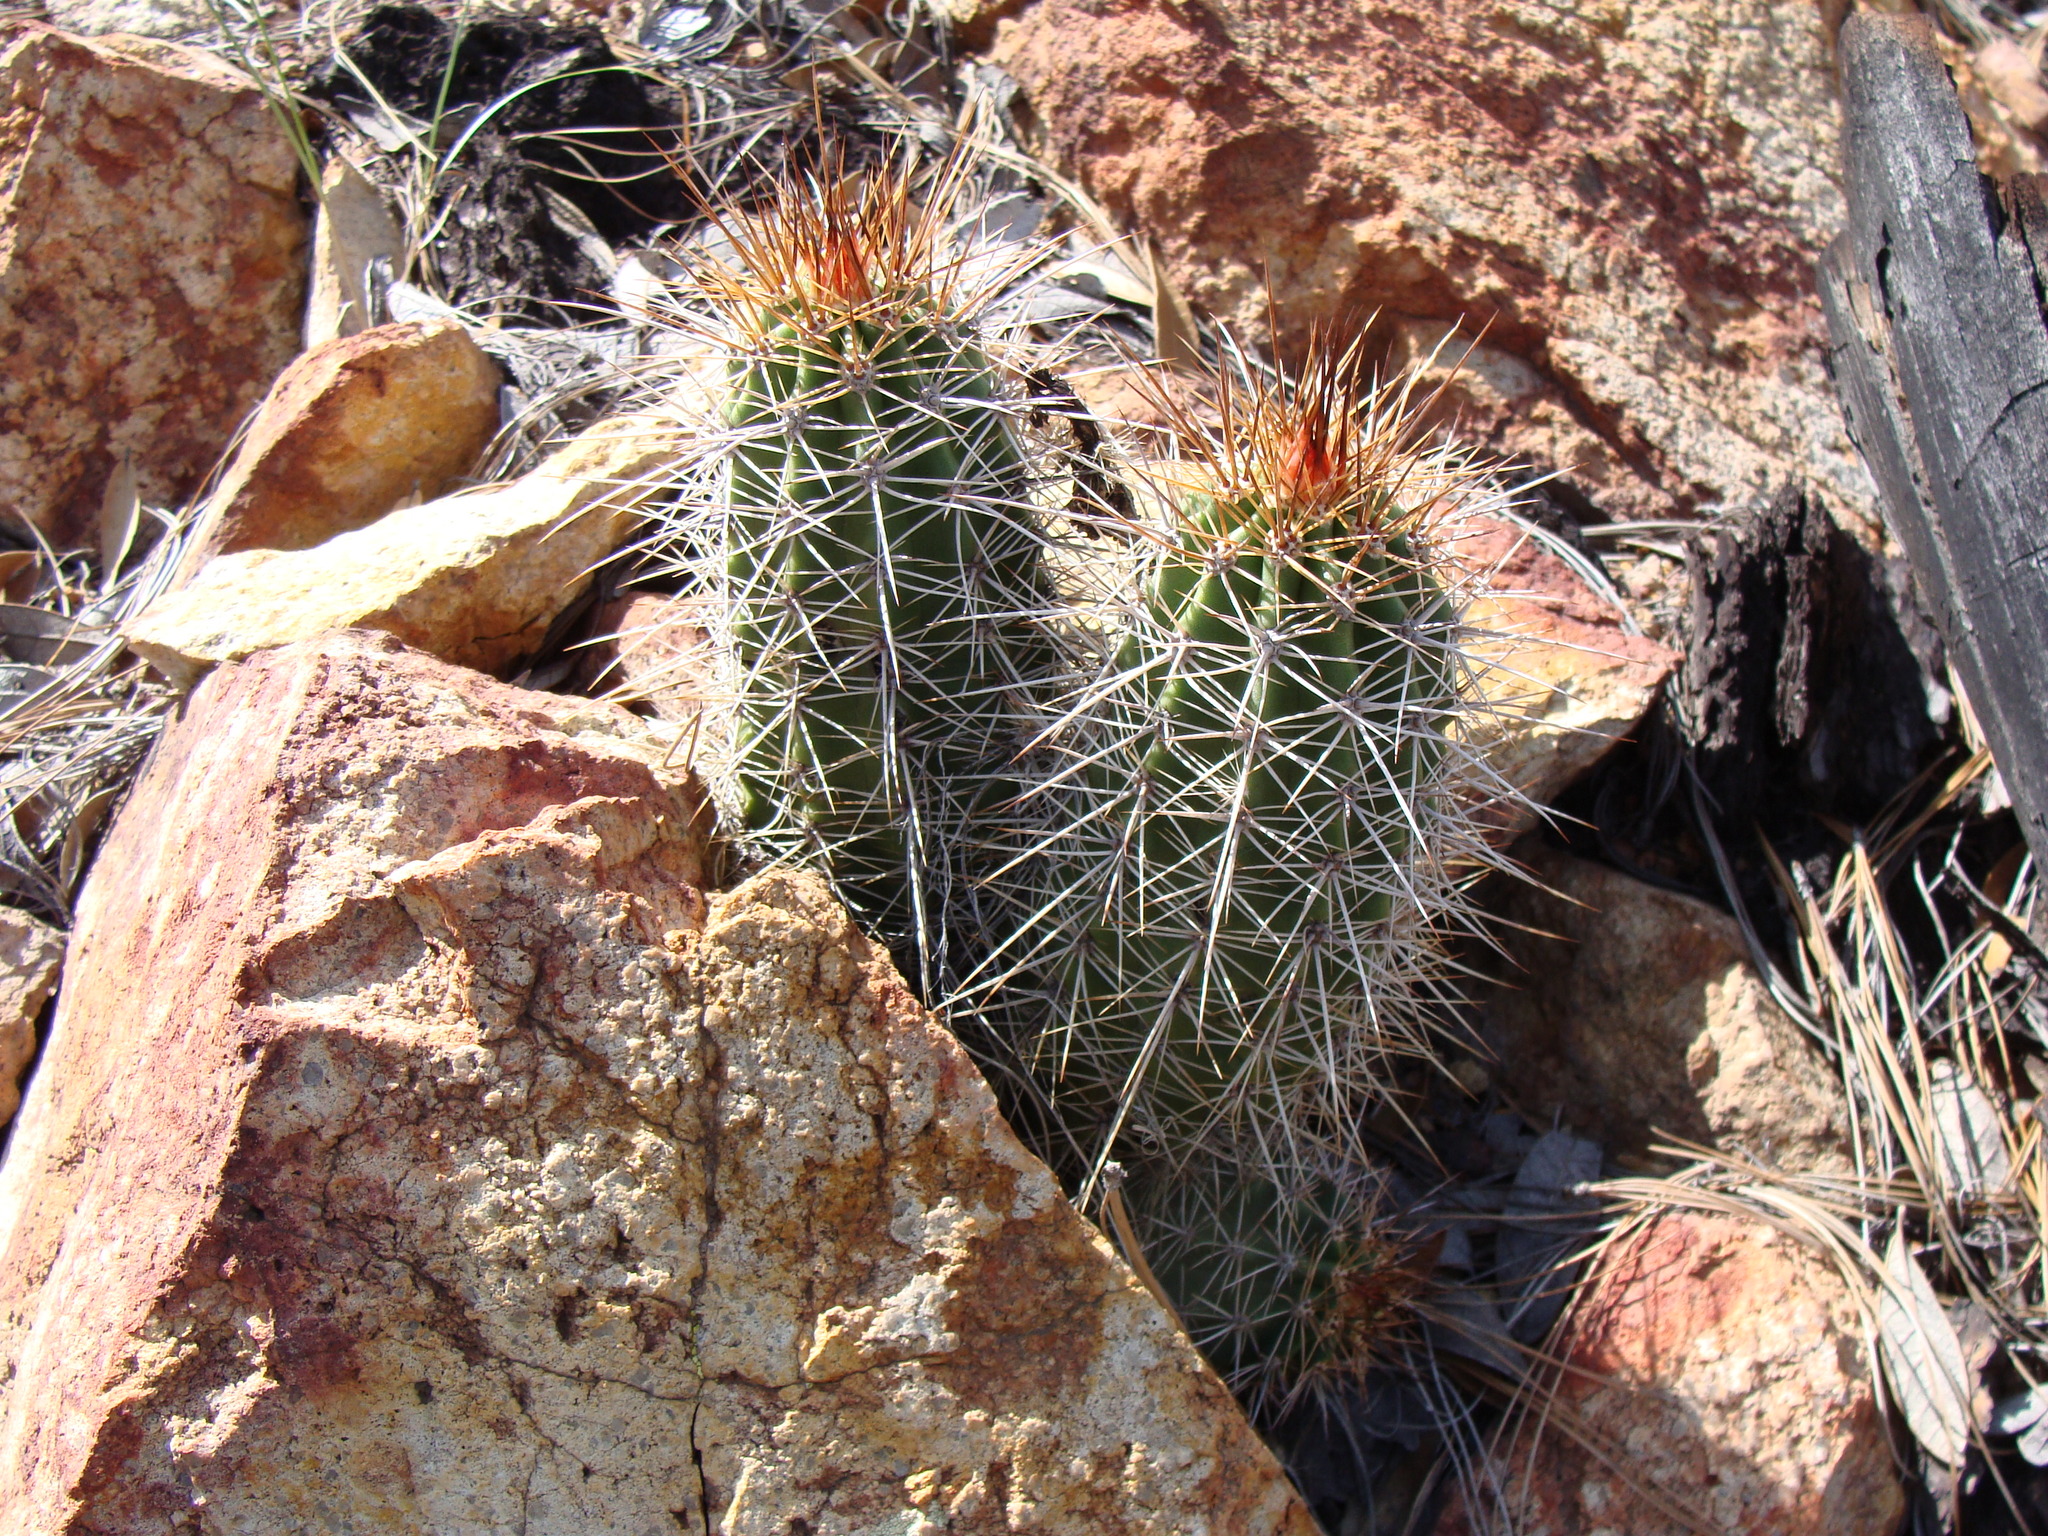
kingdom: Plantae
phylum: Tracheophyta
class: Magnoliopsida
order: Caryophyllales
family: Cactaceae
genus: Echinocereus
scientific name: Echinocereus coccineus
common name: Scarlet hedgehog cactus
